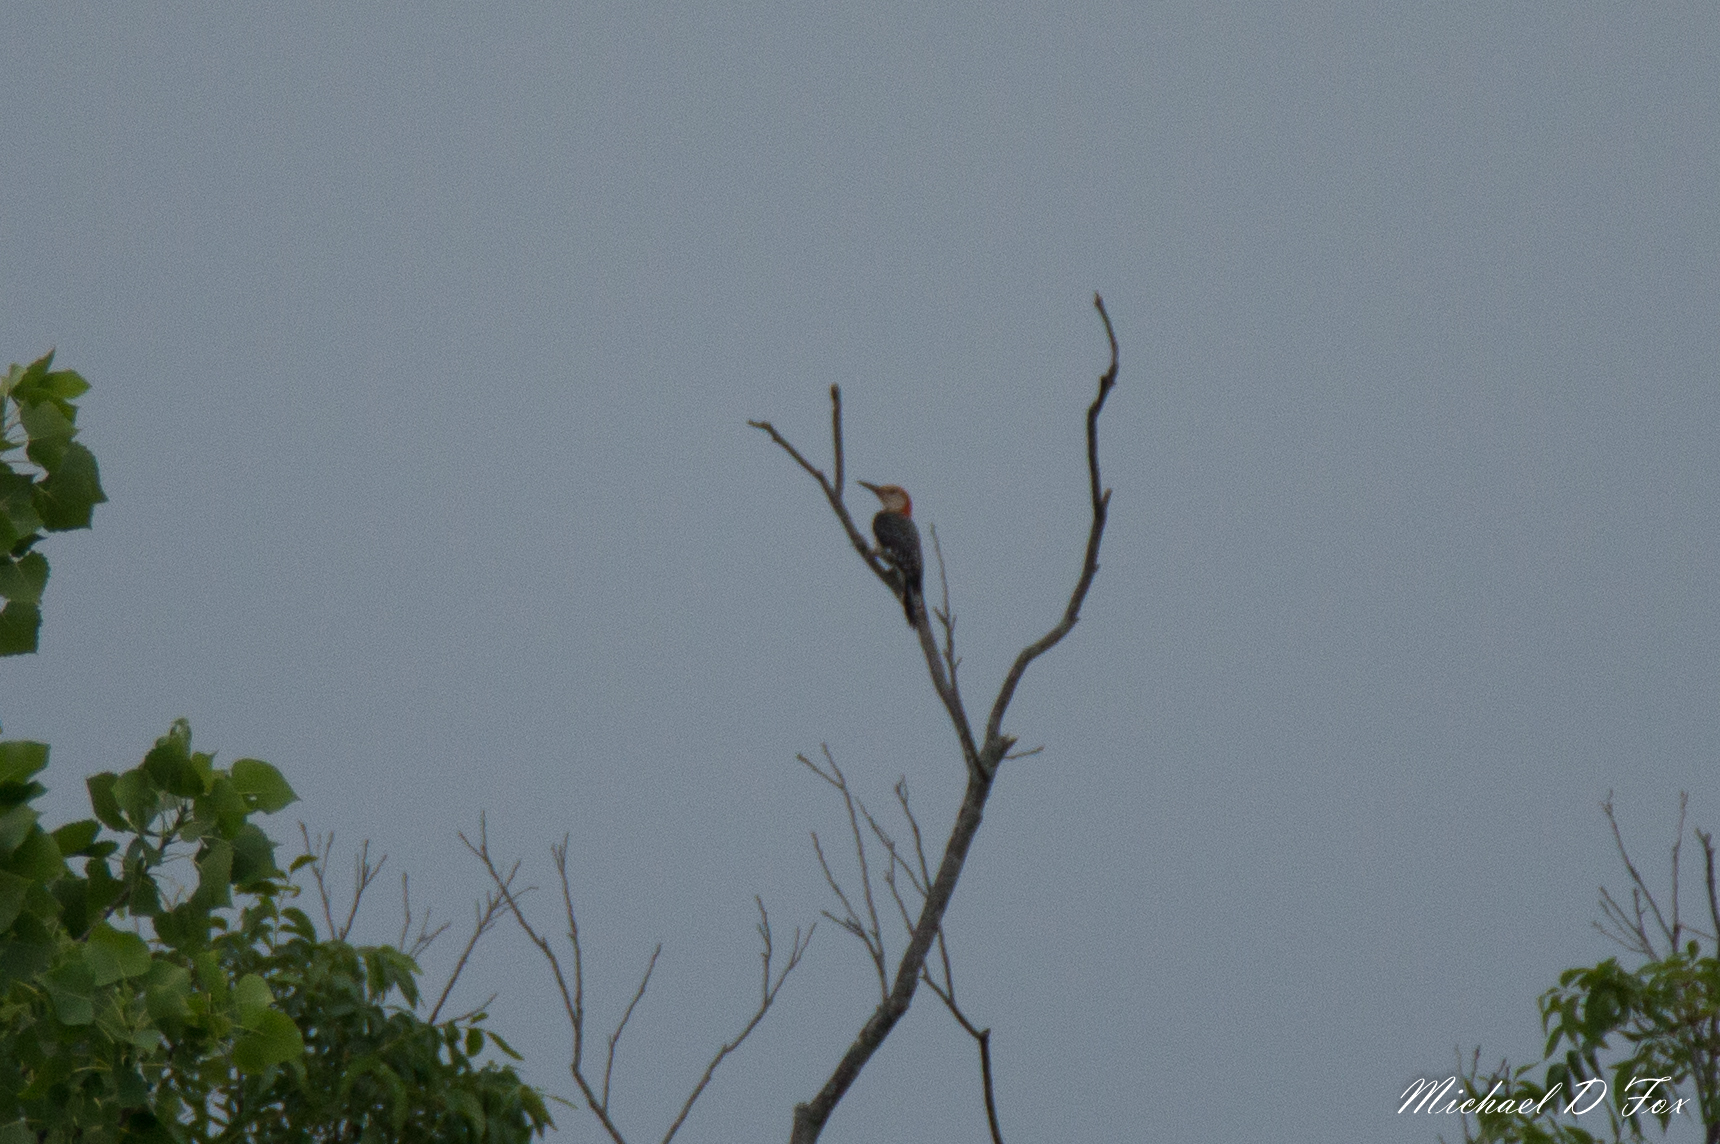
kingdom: Animalia
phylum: Chordata
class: Aves
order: Piciformes
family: Picidae
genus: Melanerpes
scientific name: Melanerpes carolinus
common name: Red-bellied woodpecker
